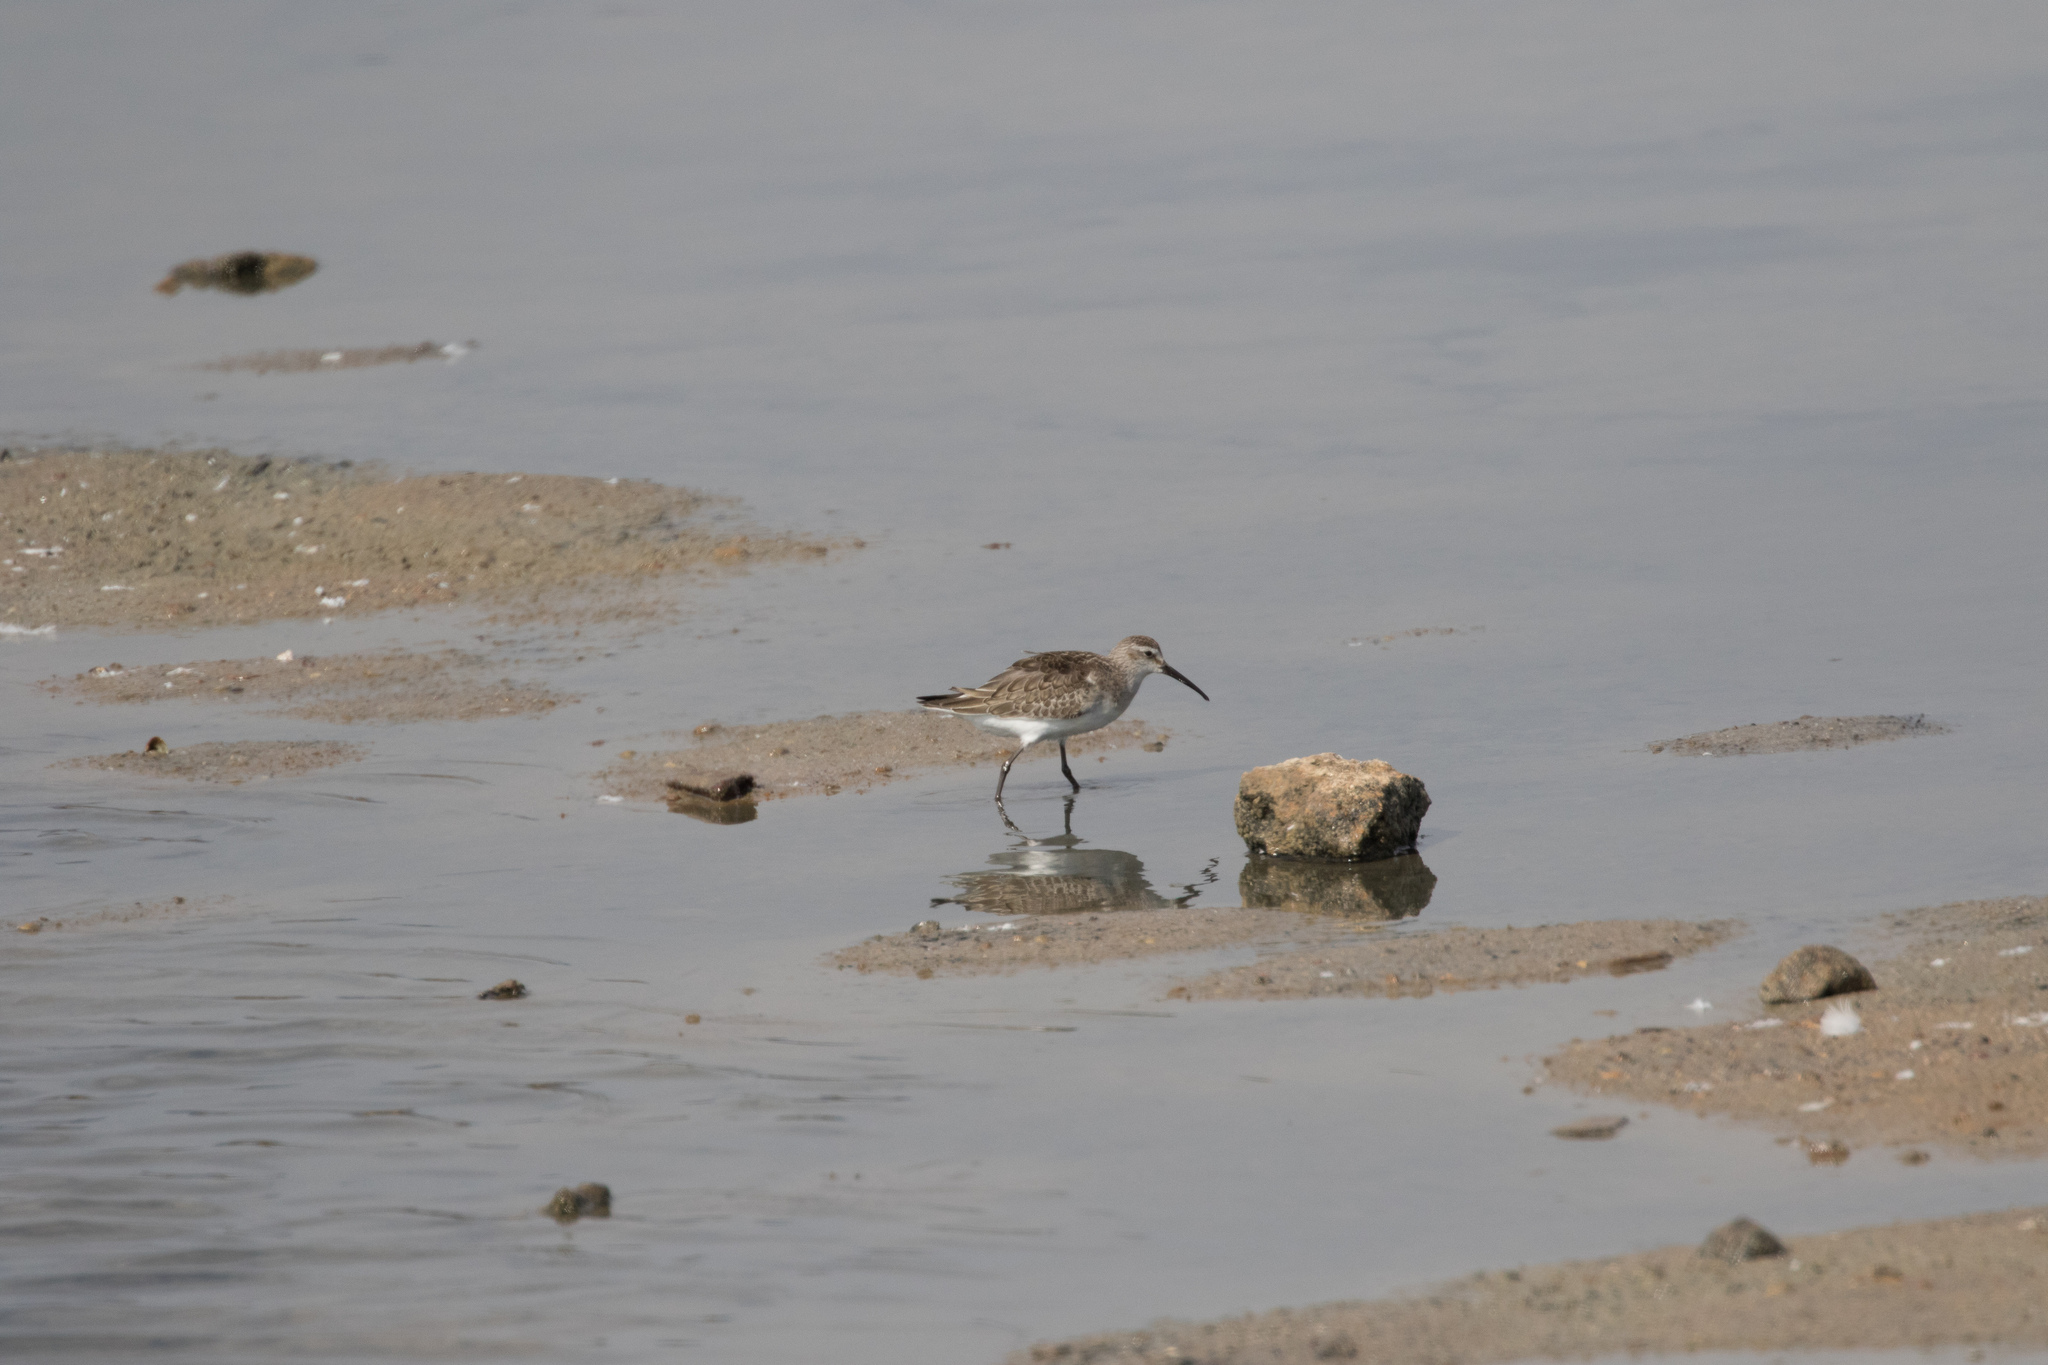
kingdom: Animalia
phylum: Chordata
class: Aves
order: Charadriiformes
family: Scolopacidae
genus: Calidris
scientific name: Calidris ferruginea
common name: Curlew sandpiper
